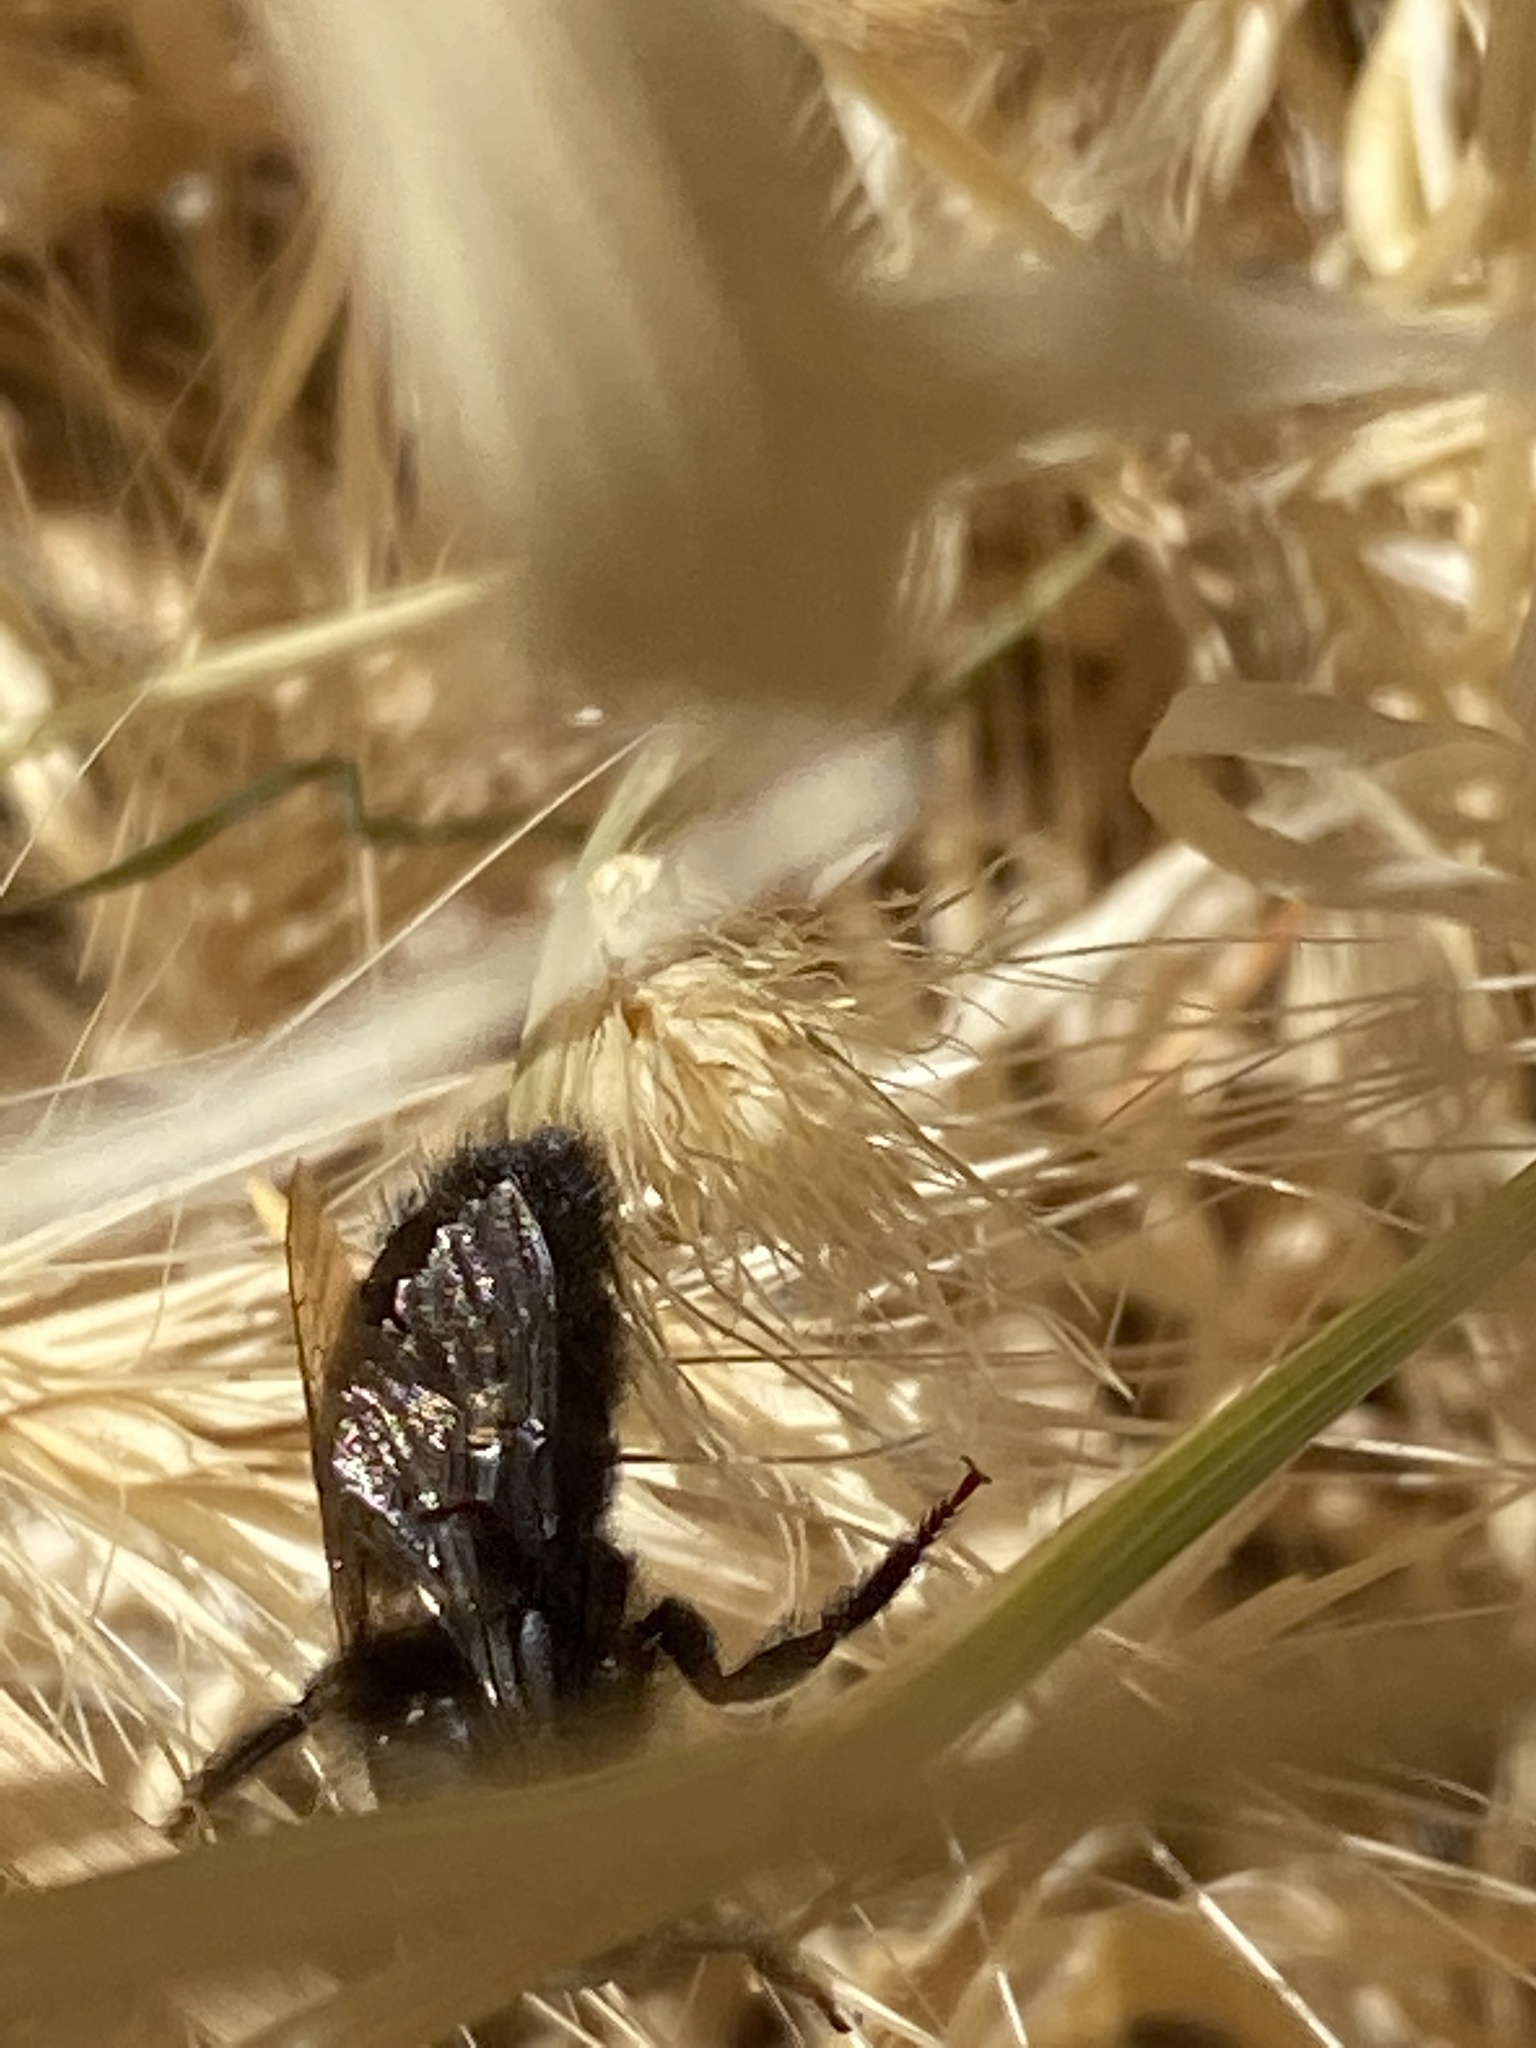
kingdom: Animalia
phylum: Arthropoda
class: Insecta
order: Hymenoptera
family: Apidae
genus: Xylocopa
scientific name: Xylocopa tabaniformis
